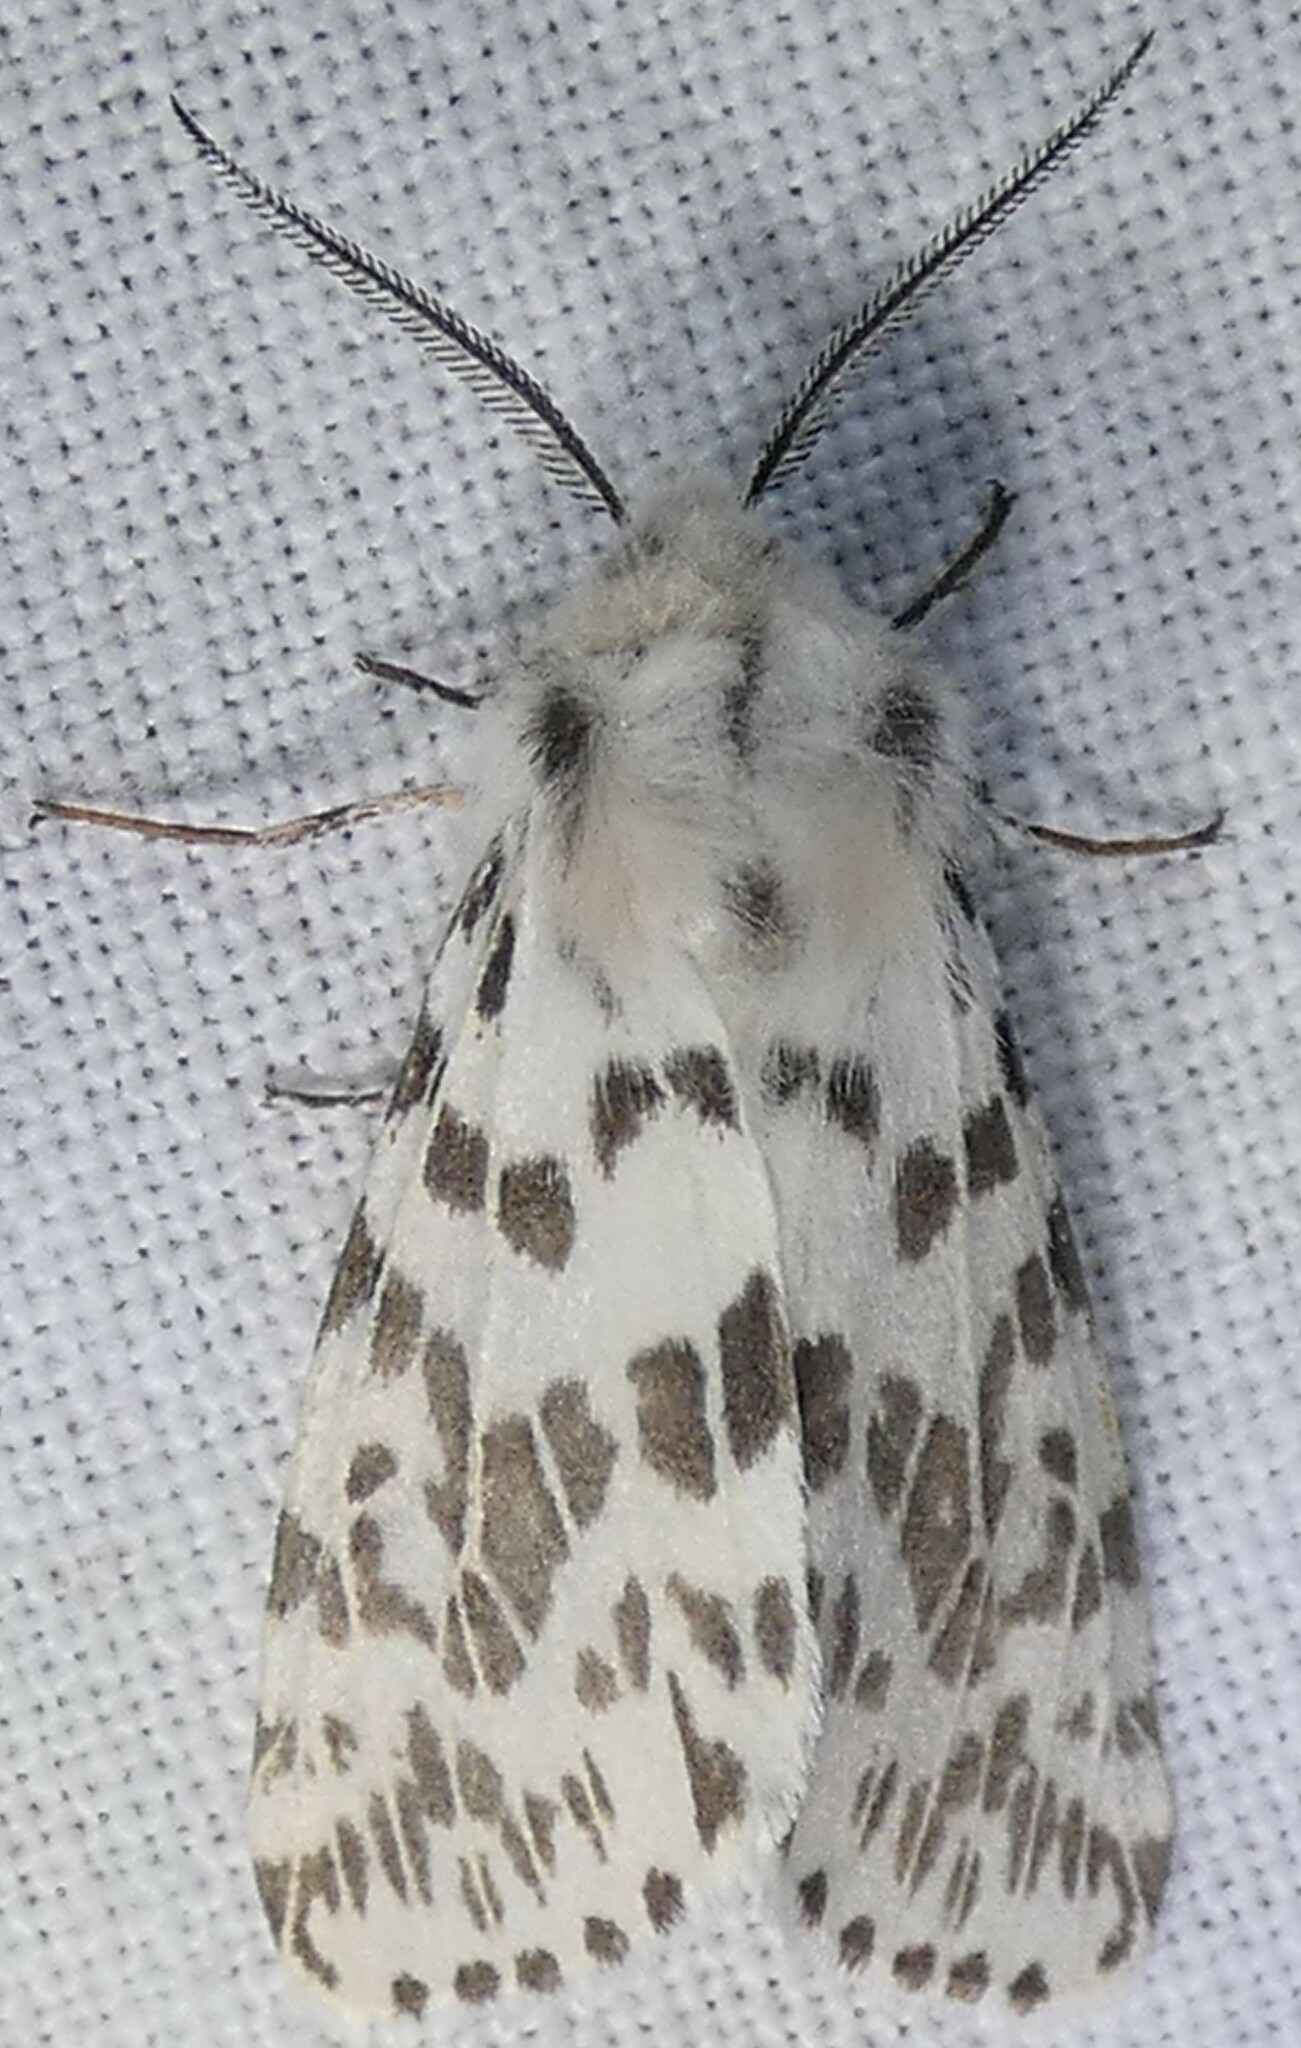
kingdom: Animalia
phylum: Arthropoda
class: Insecta
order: Lepidoptera
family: Erebidae
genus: Hyphantria
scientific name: Hyphantria cunea
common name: American white moth
